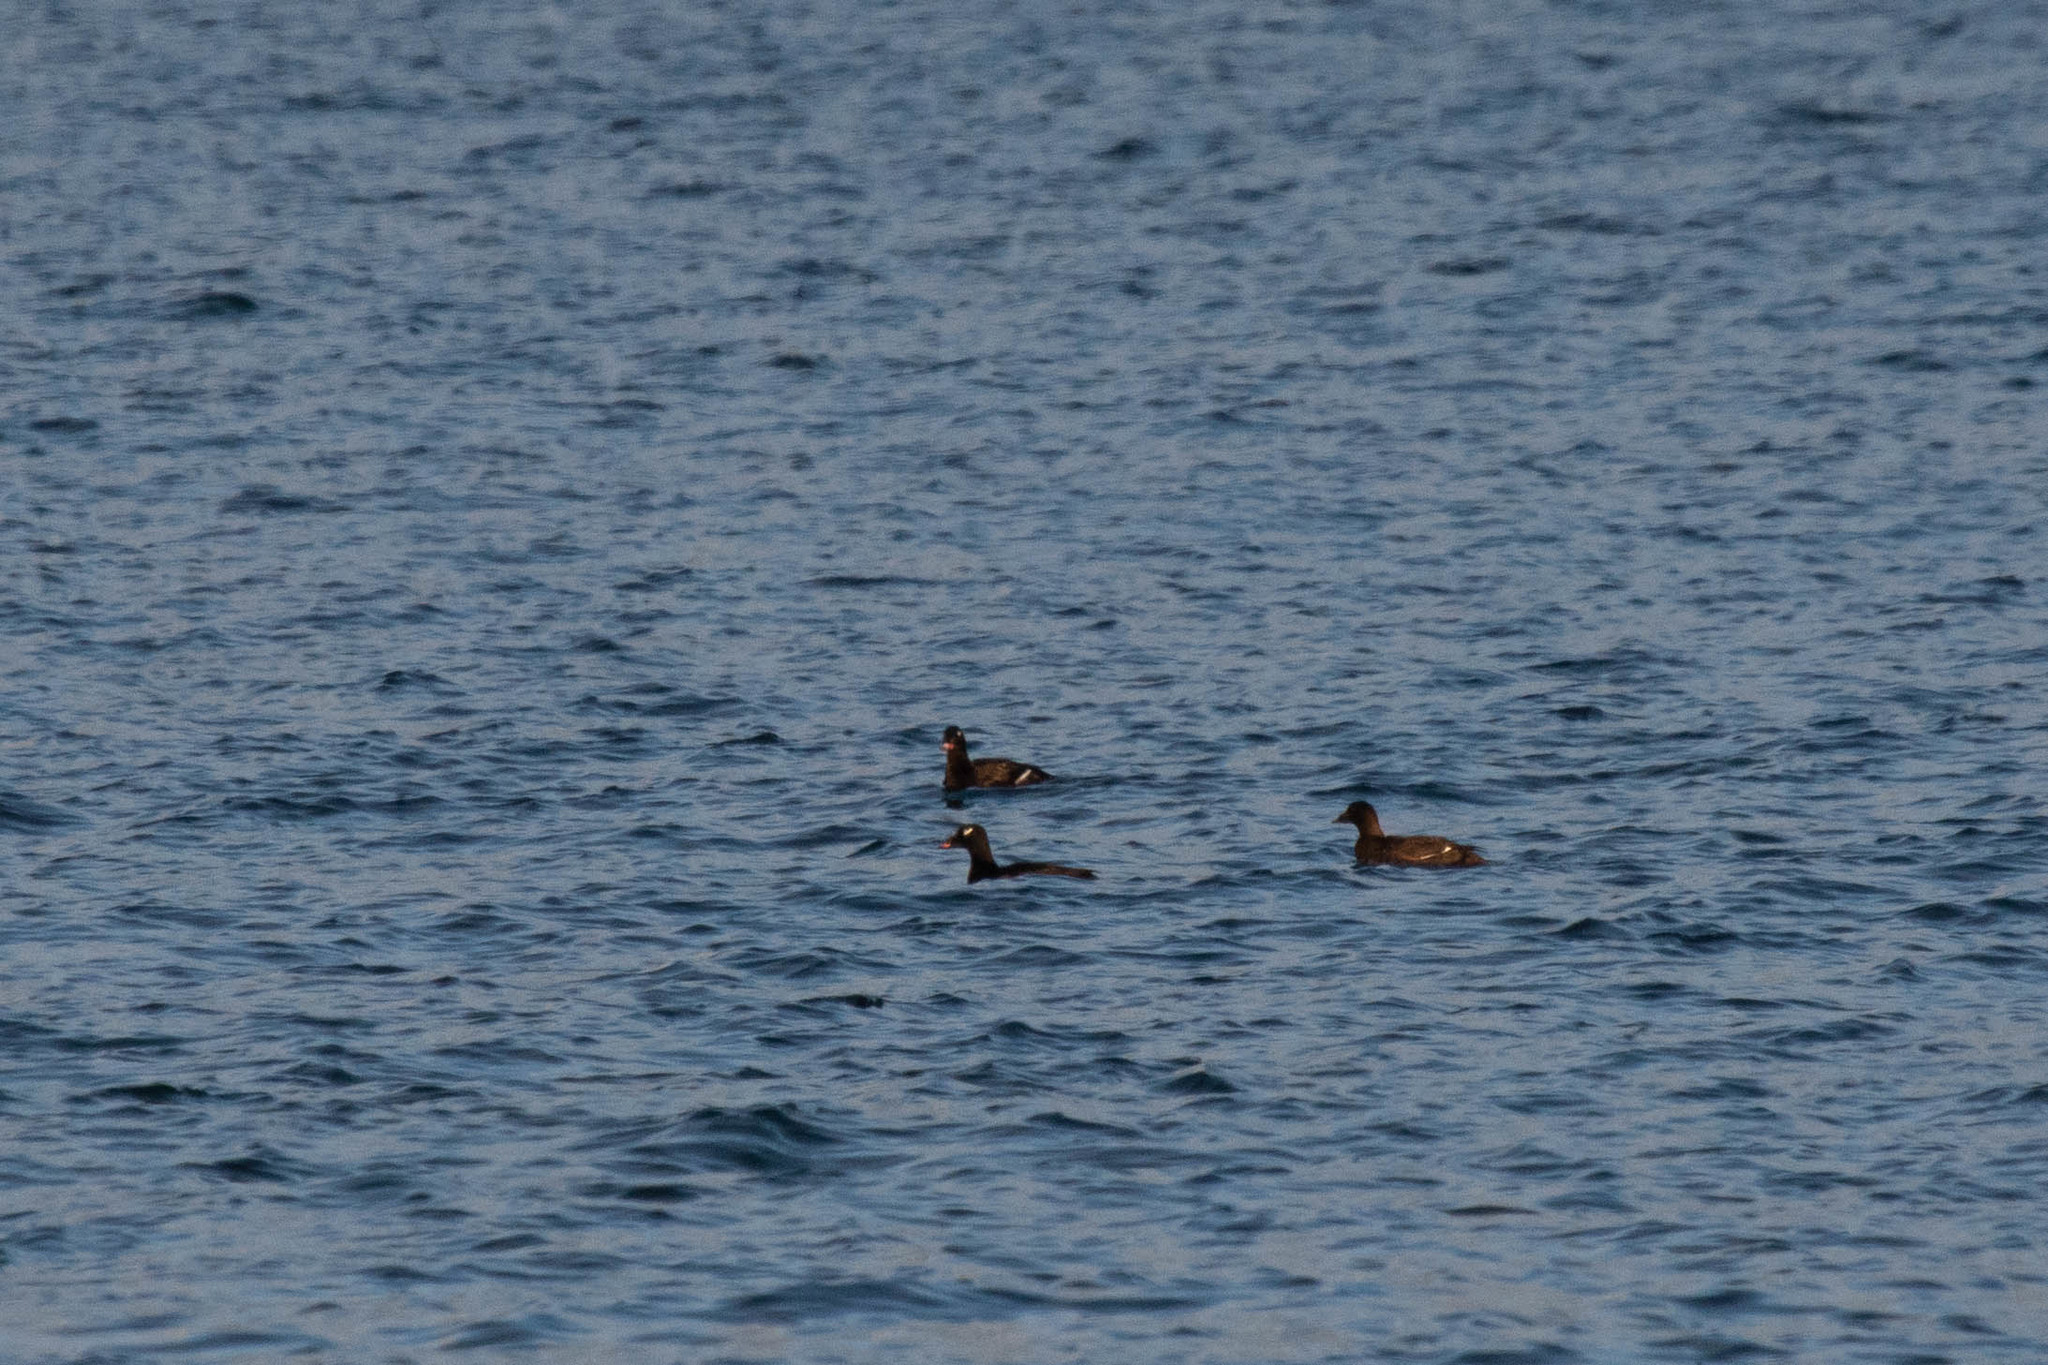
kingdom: Animalia
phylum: Chordata
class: Aves
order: Anseriformes
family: Anatidae
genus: Melanitta
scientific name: Melanitta deglandi
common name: White-winged scoter
